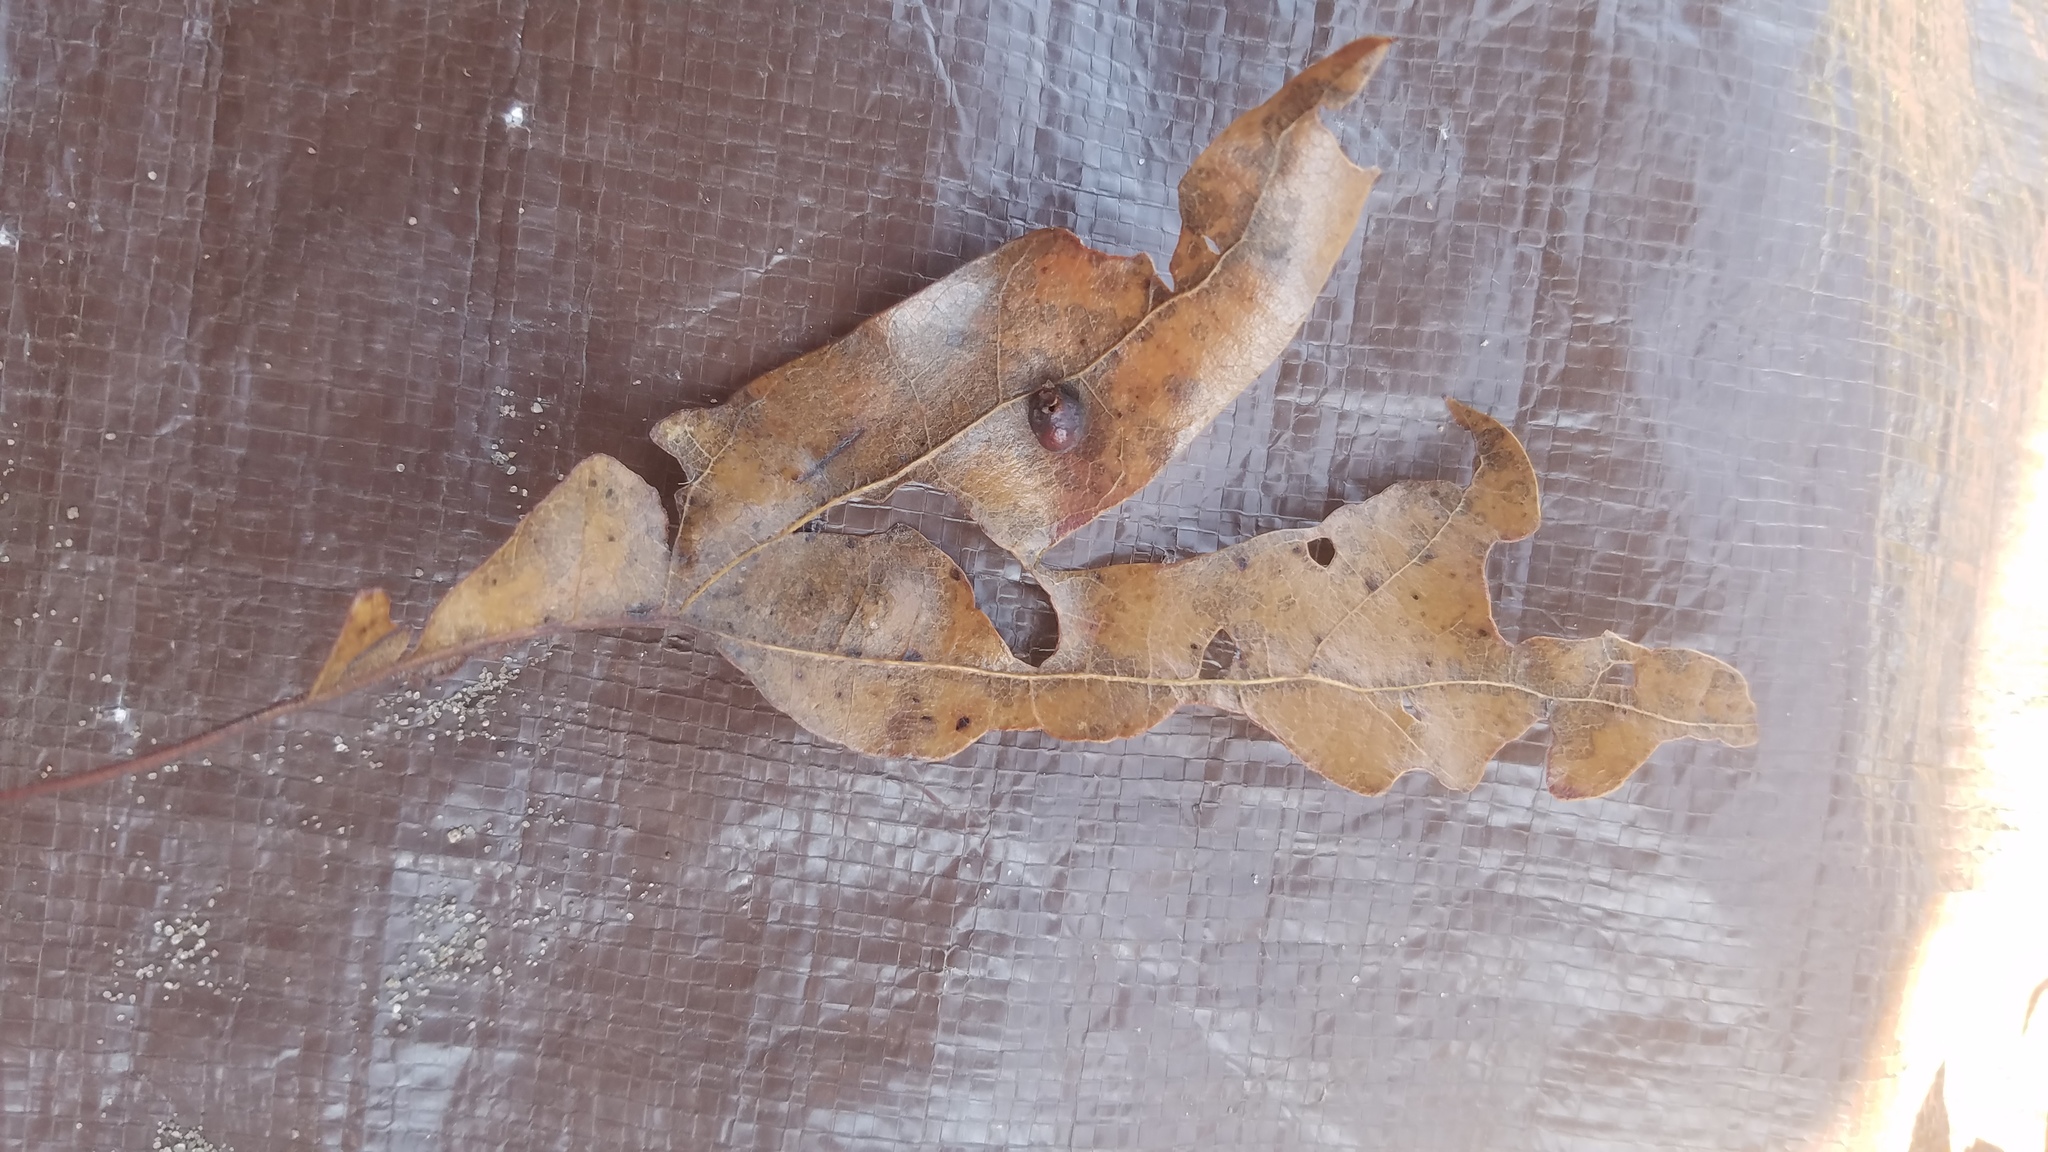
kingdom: Animalia
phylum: Arthropoda
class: Insecta
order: Diptera
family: Cecidomyiidae
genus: Polystepha
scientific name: Polystepha pilulae
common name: Oak leaf gall midge
